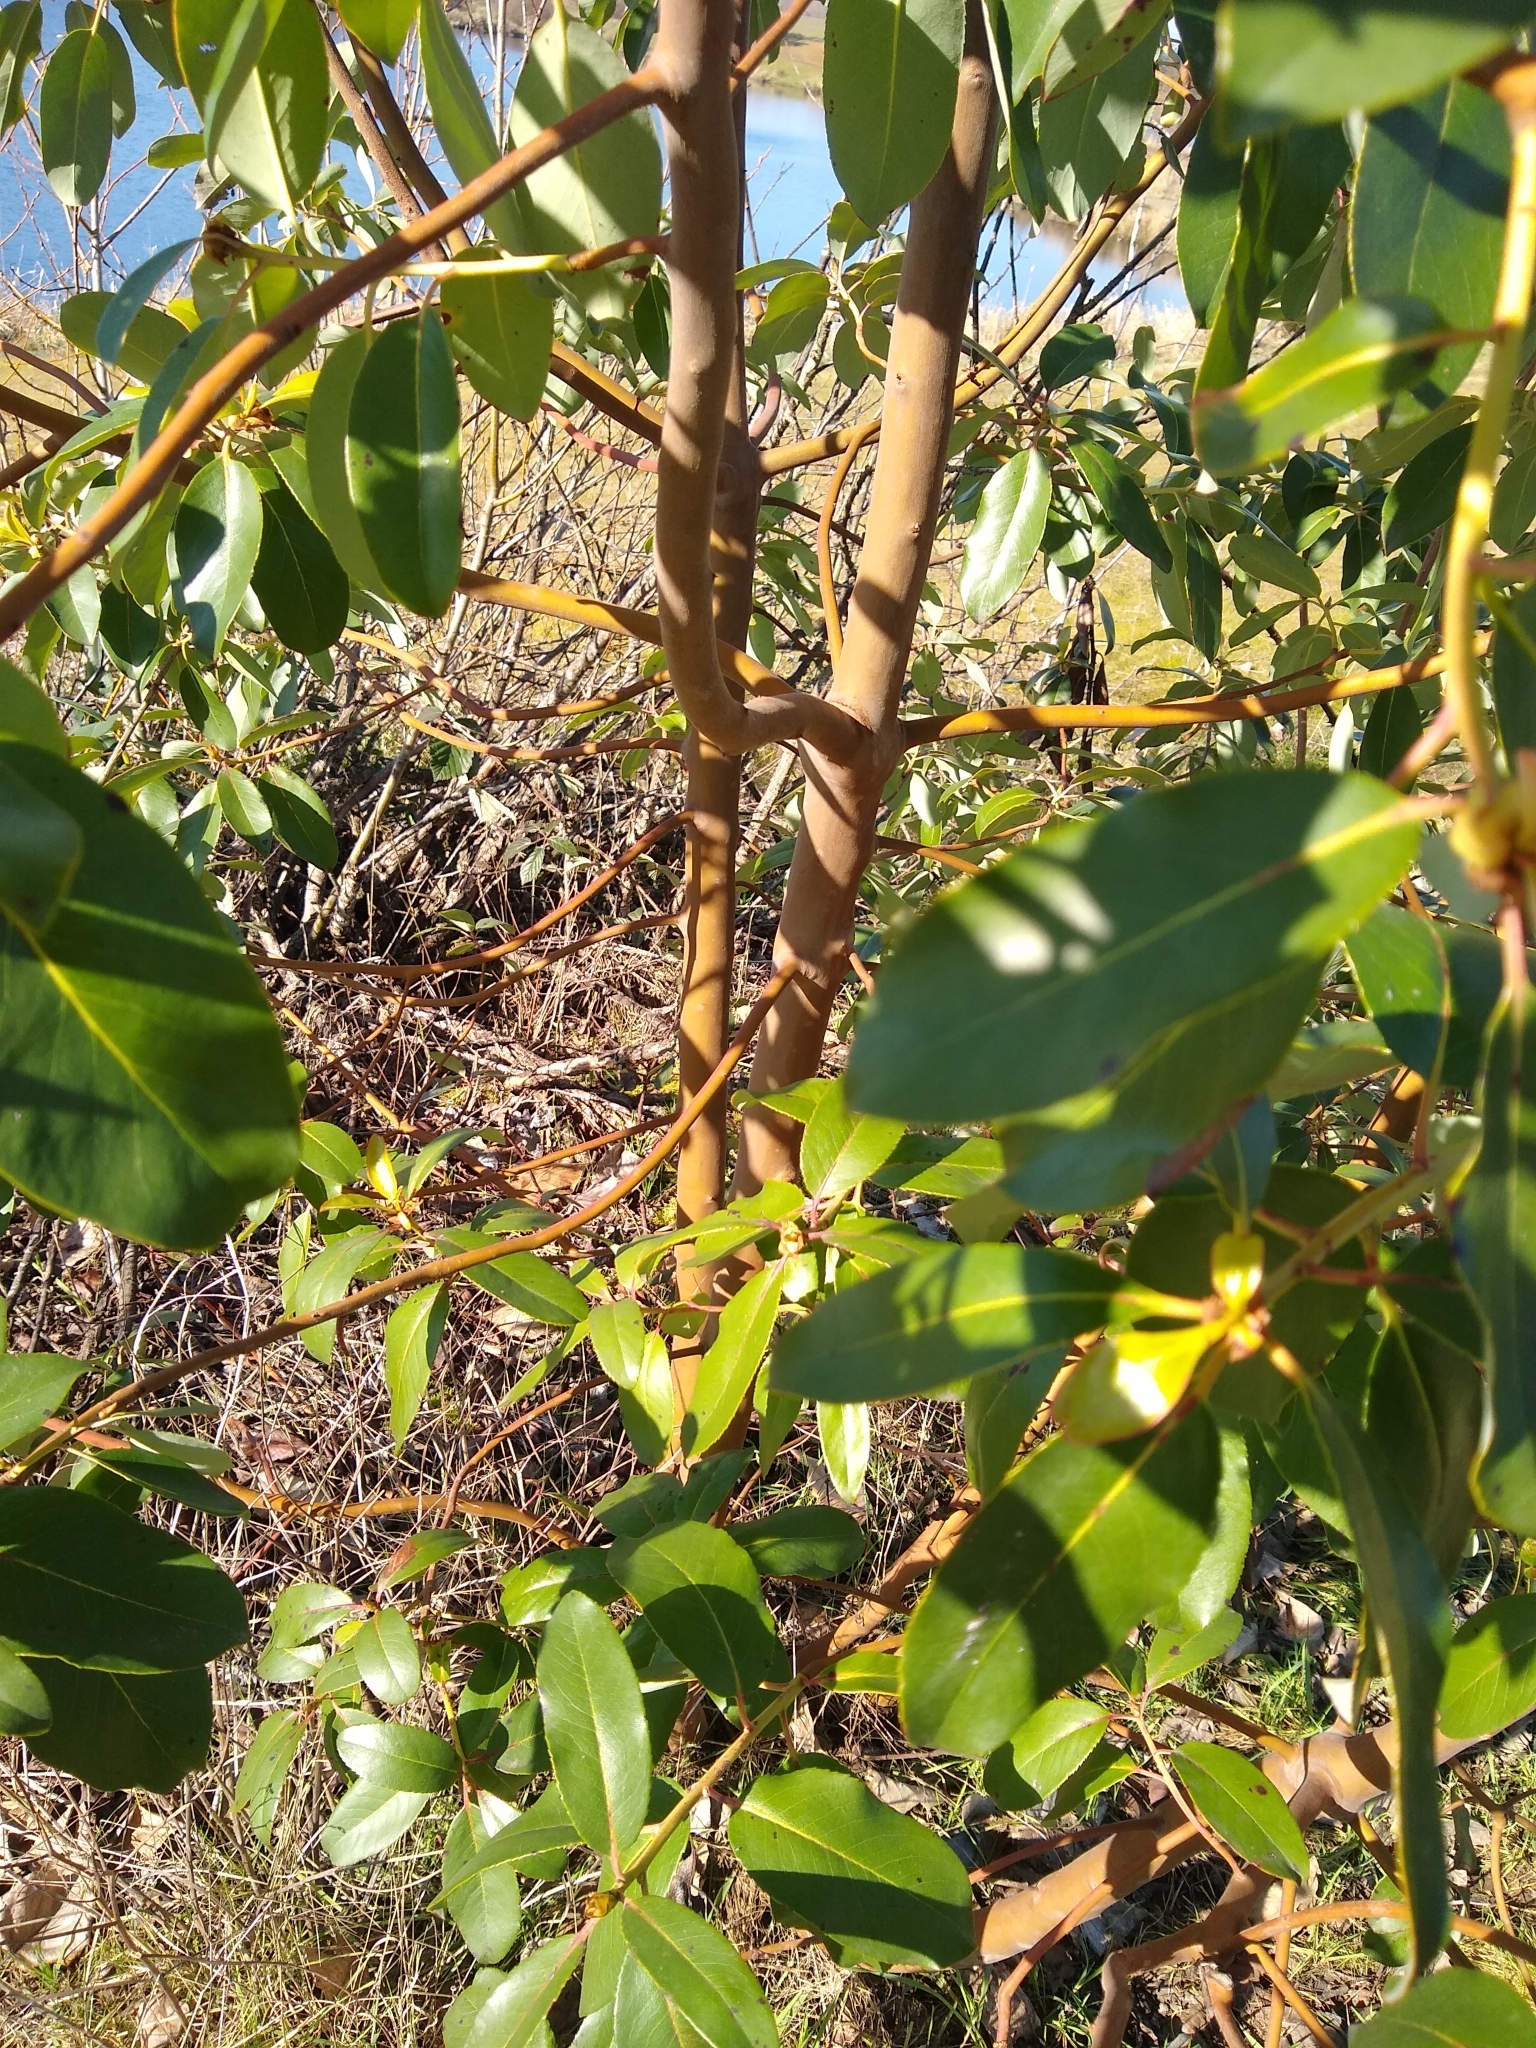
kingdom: Plantae
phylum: Tracheophyta
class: Magnoliopsida
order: Ericales
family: Ericaceae
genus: Arbutus
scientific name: Arbutus menziesii
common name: Pacific madrone
